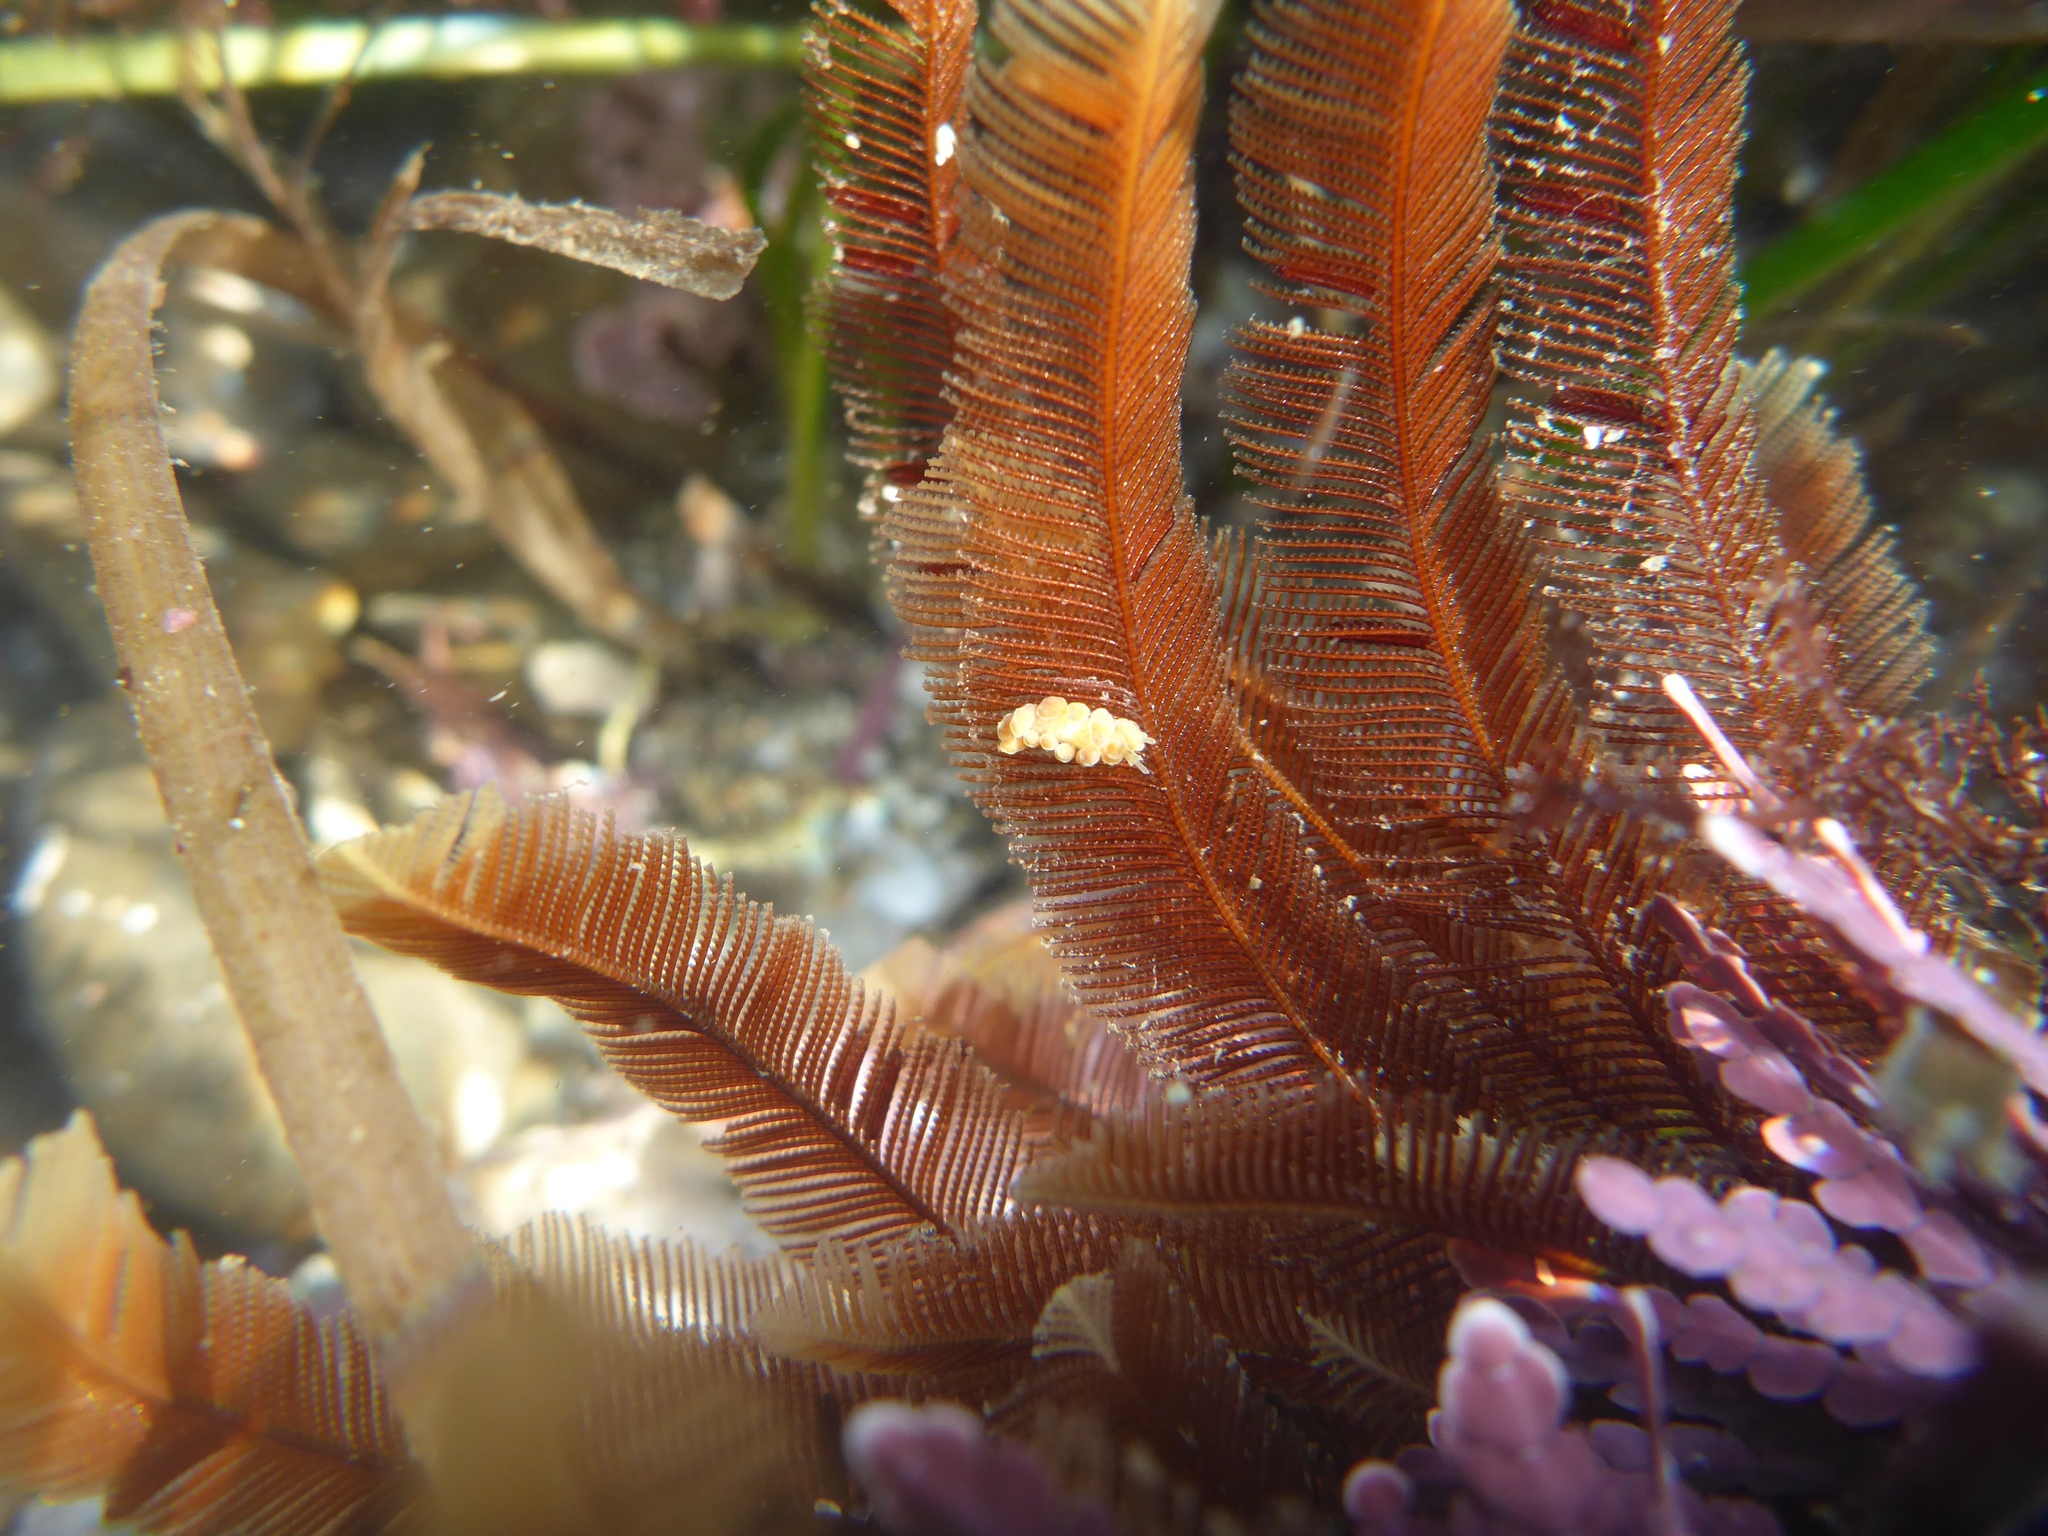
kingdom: Animalia
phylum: Mollusca
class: Gastropoda
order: Nudibranchia
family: Dotidae
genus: Doto
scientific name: Doto columbiana
